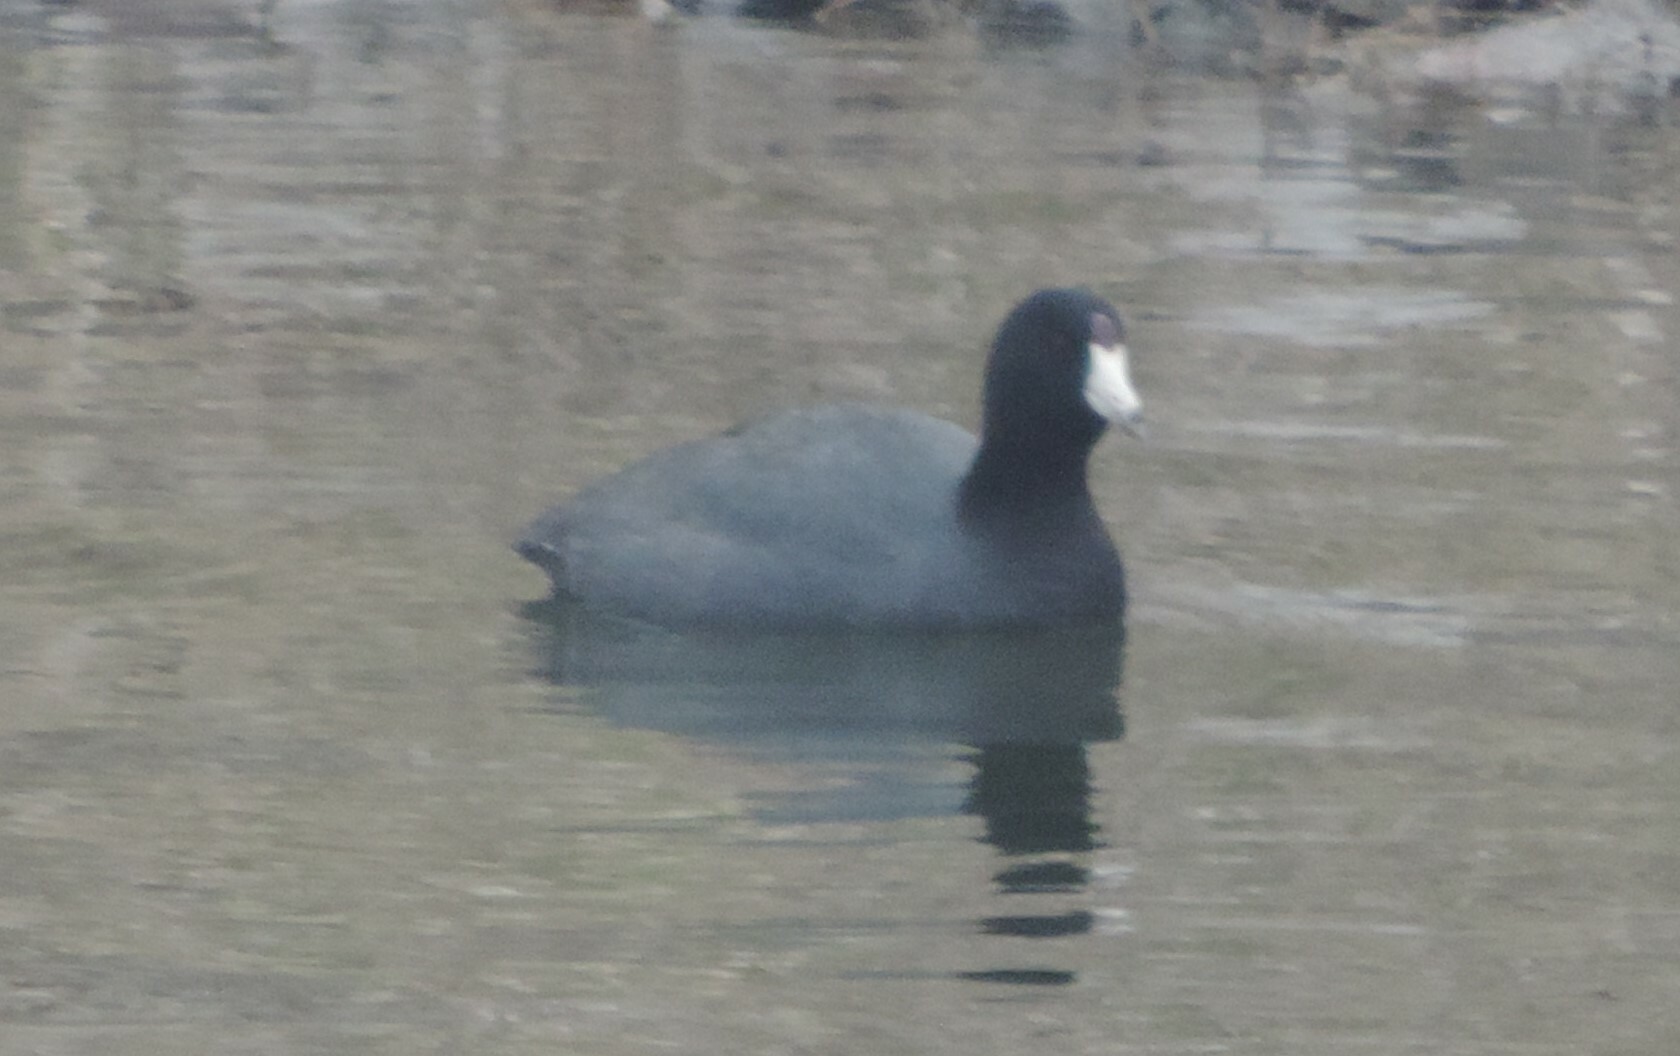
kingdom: Animalia
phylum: Chordata
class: Aves
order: Gruiformes
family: Rallidae
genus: Fulica
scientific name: Fulica americana
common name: American coot
